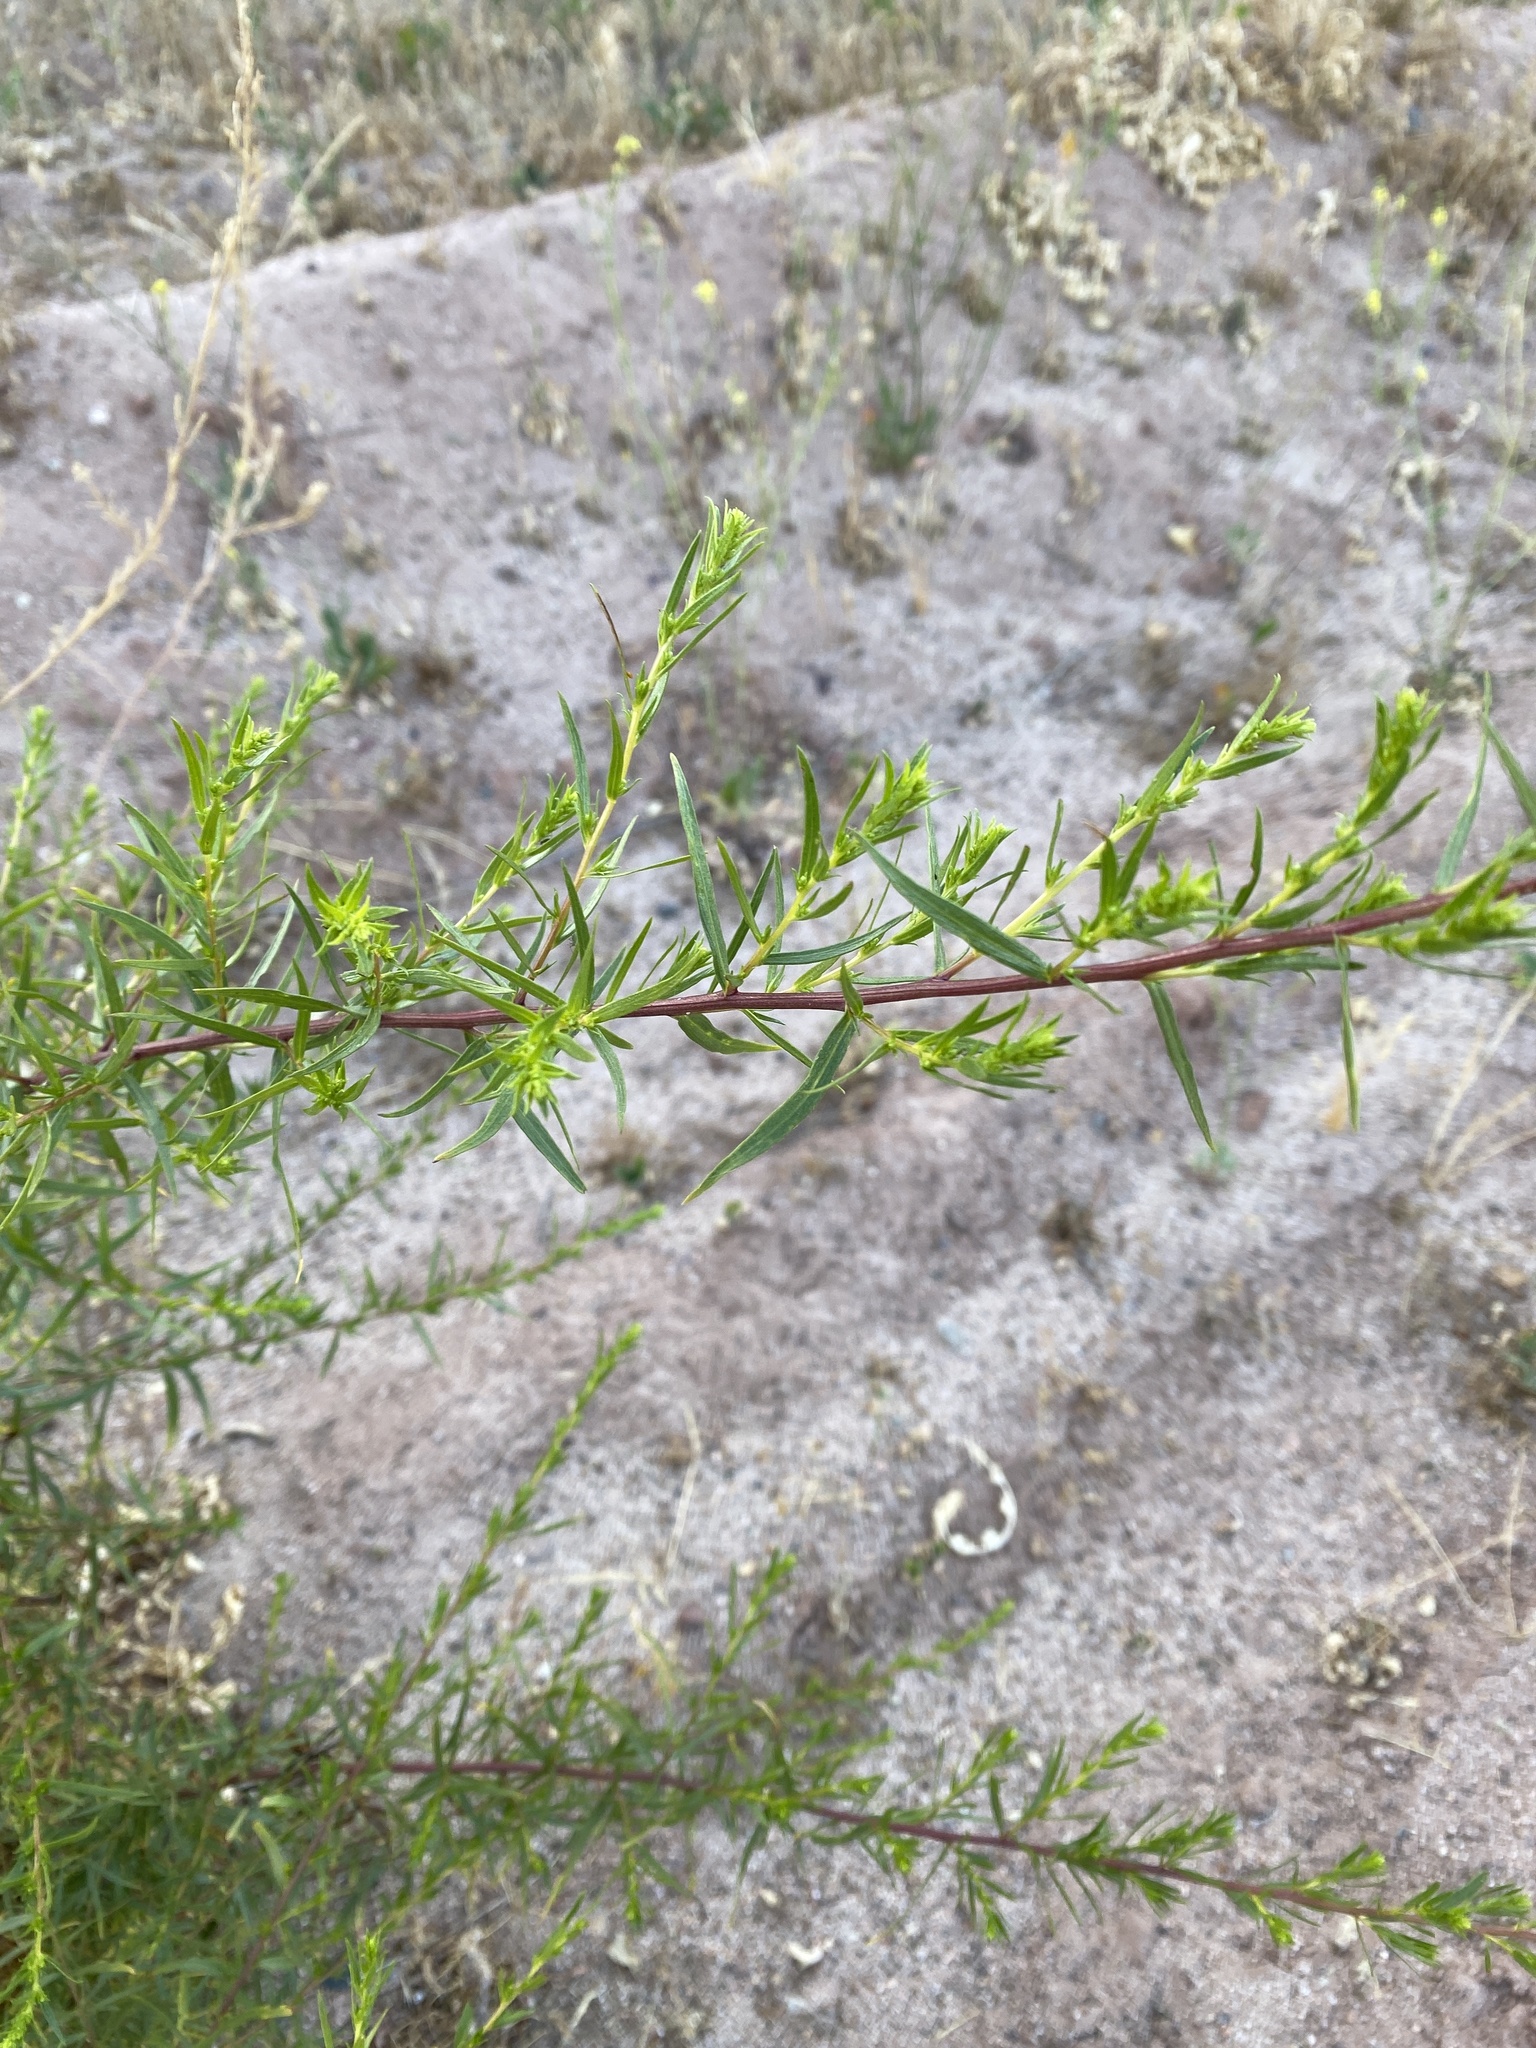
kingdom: Plantae
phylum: Tracheophyta
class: Magnoliopsida
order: Asterales
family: Asteraceae
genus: Artemisia
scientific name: Artemisia dracunculus
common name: Tarragon
